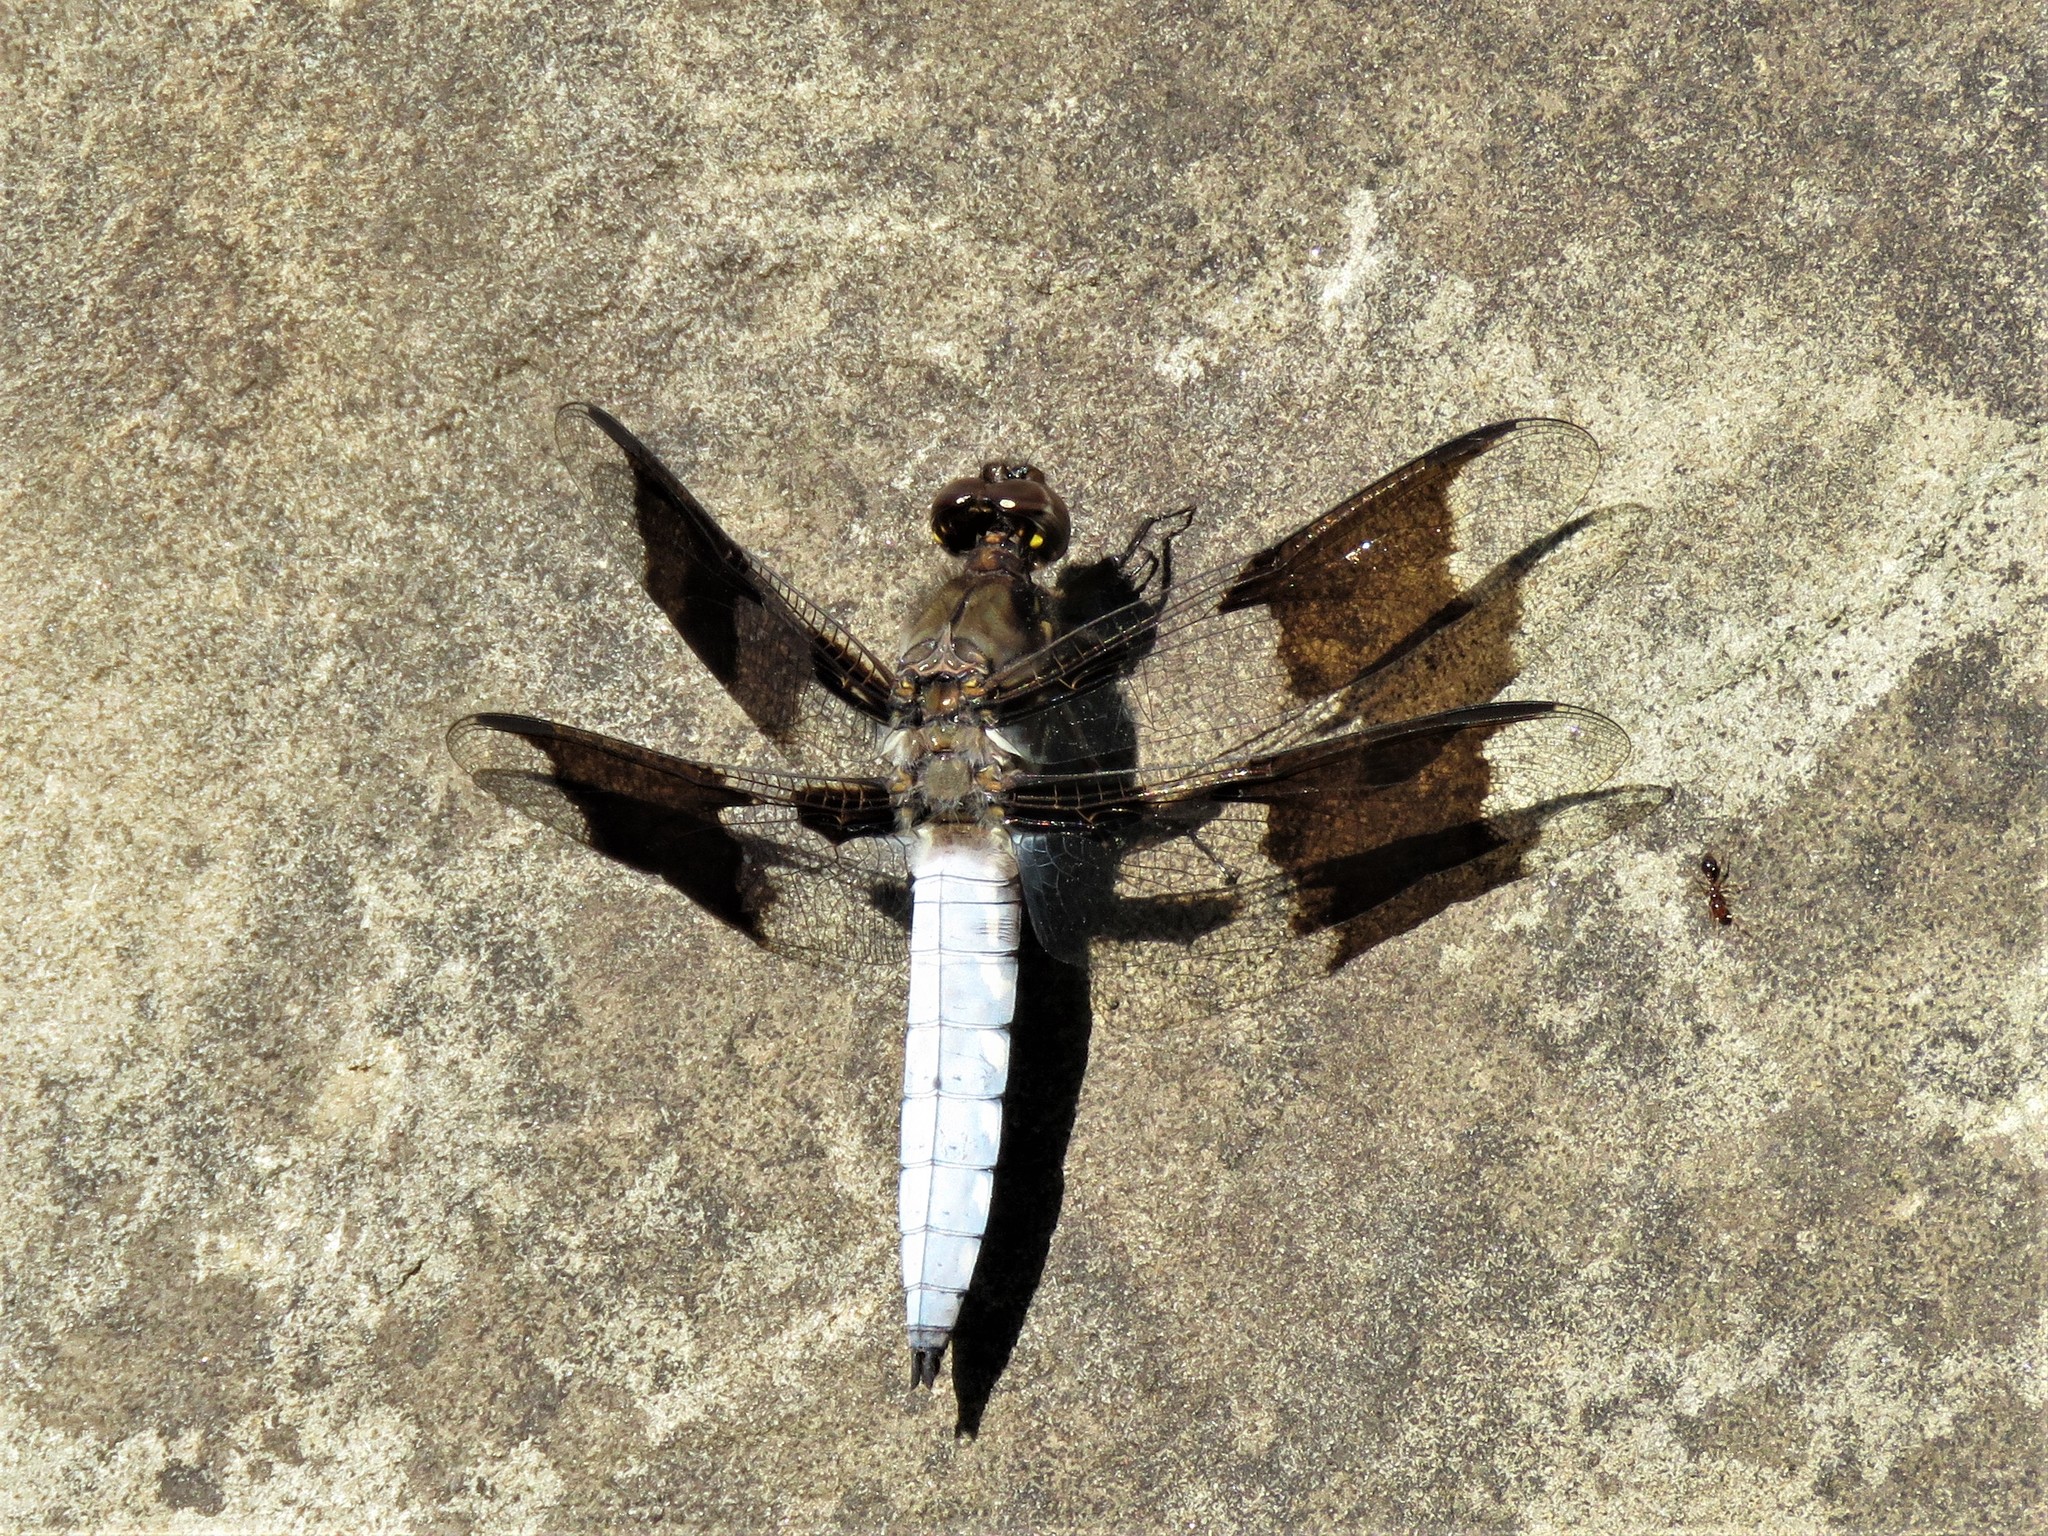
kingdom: Animalia
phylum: Arthropoda
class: Insecta
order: Odonata
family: Libellulidae
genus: Plathemis
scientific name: Plathemis lydia
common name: Common whitetail
